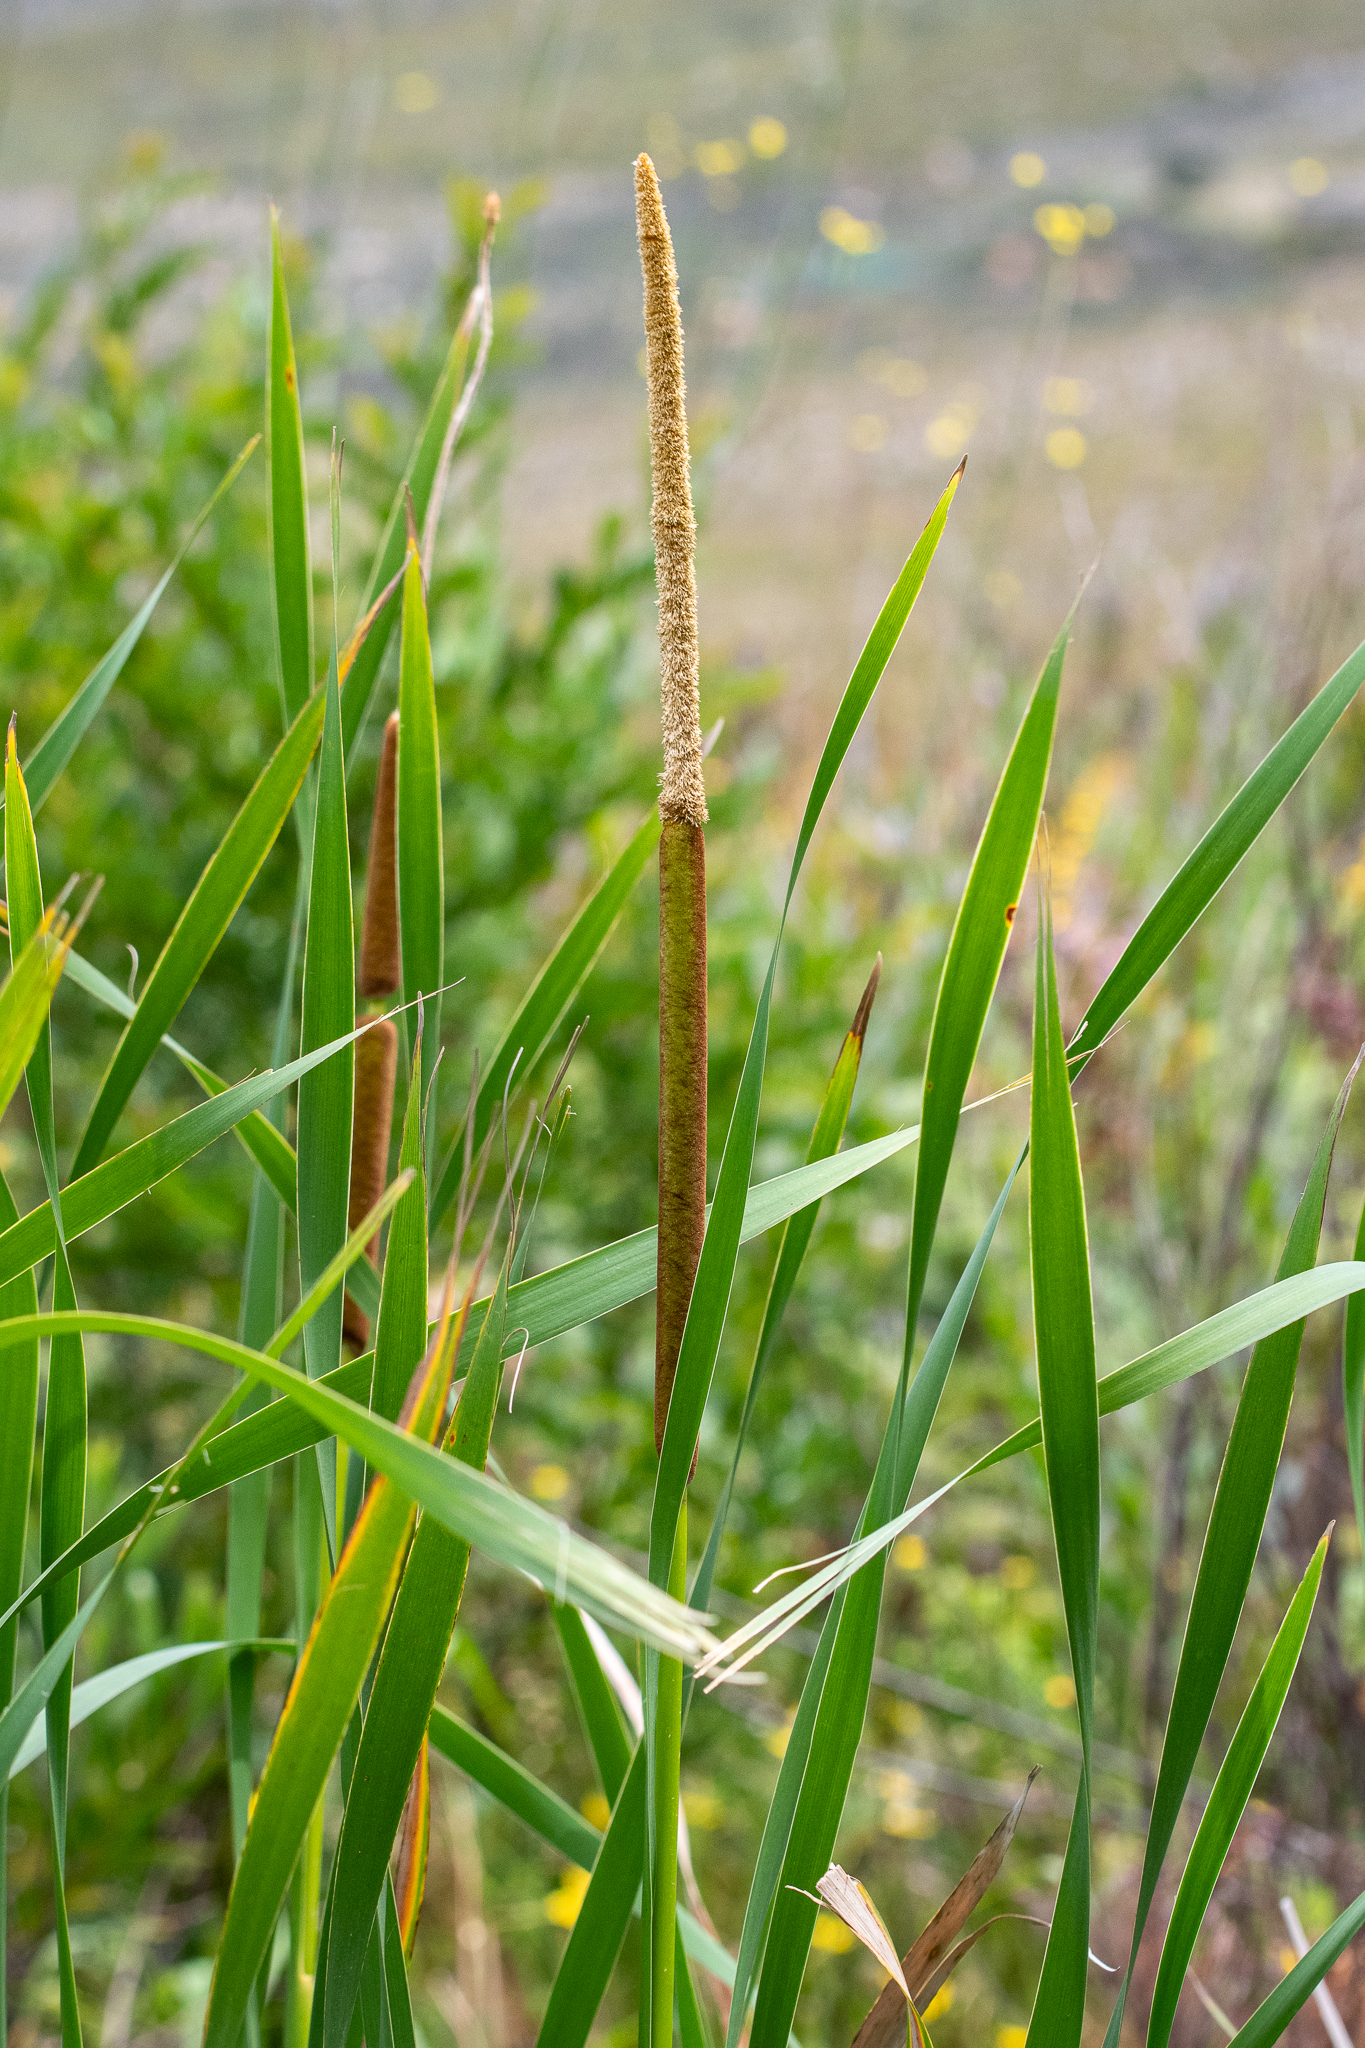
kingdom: Plantae
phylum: Tracheophyta
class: Liliopsida
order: Poales
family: Typhaceae
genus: Typha
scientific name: Typha capensis
